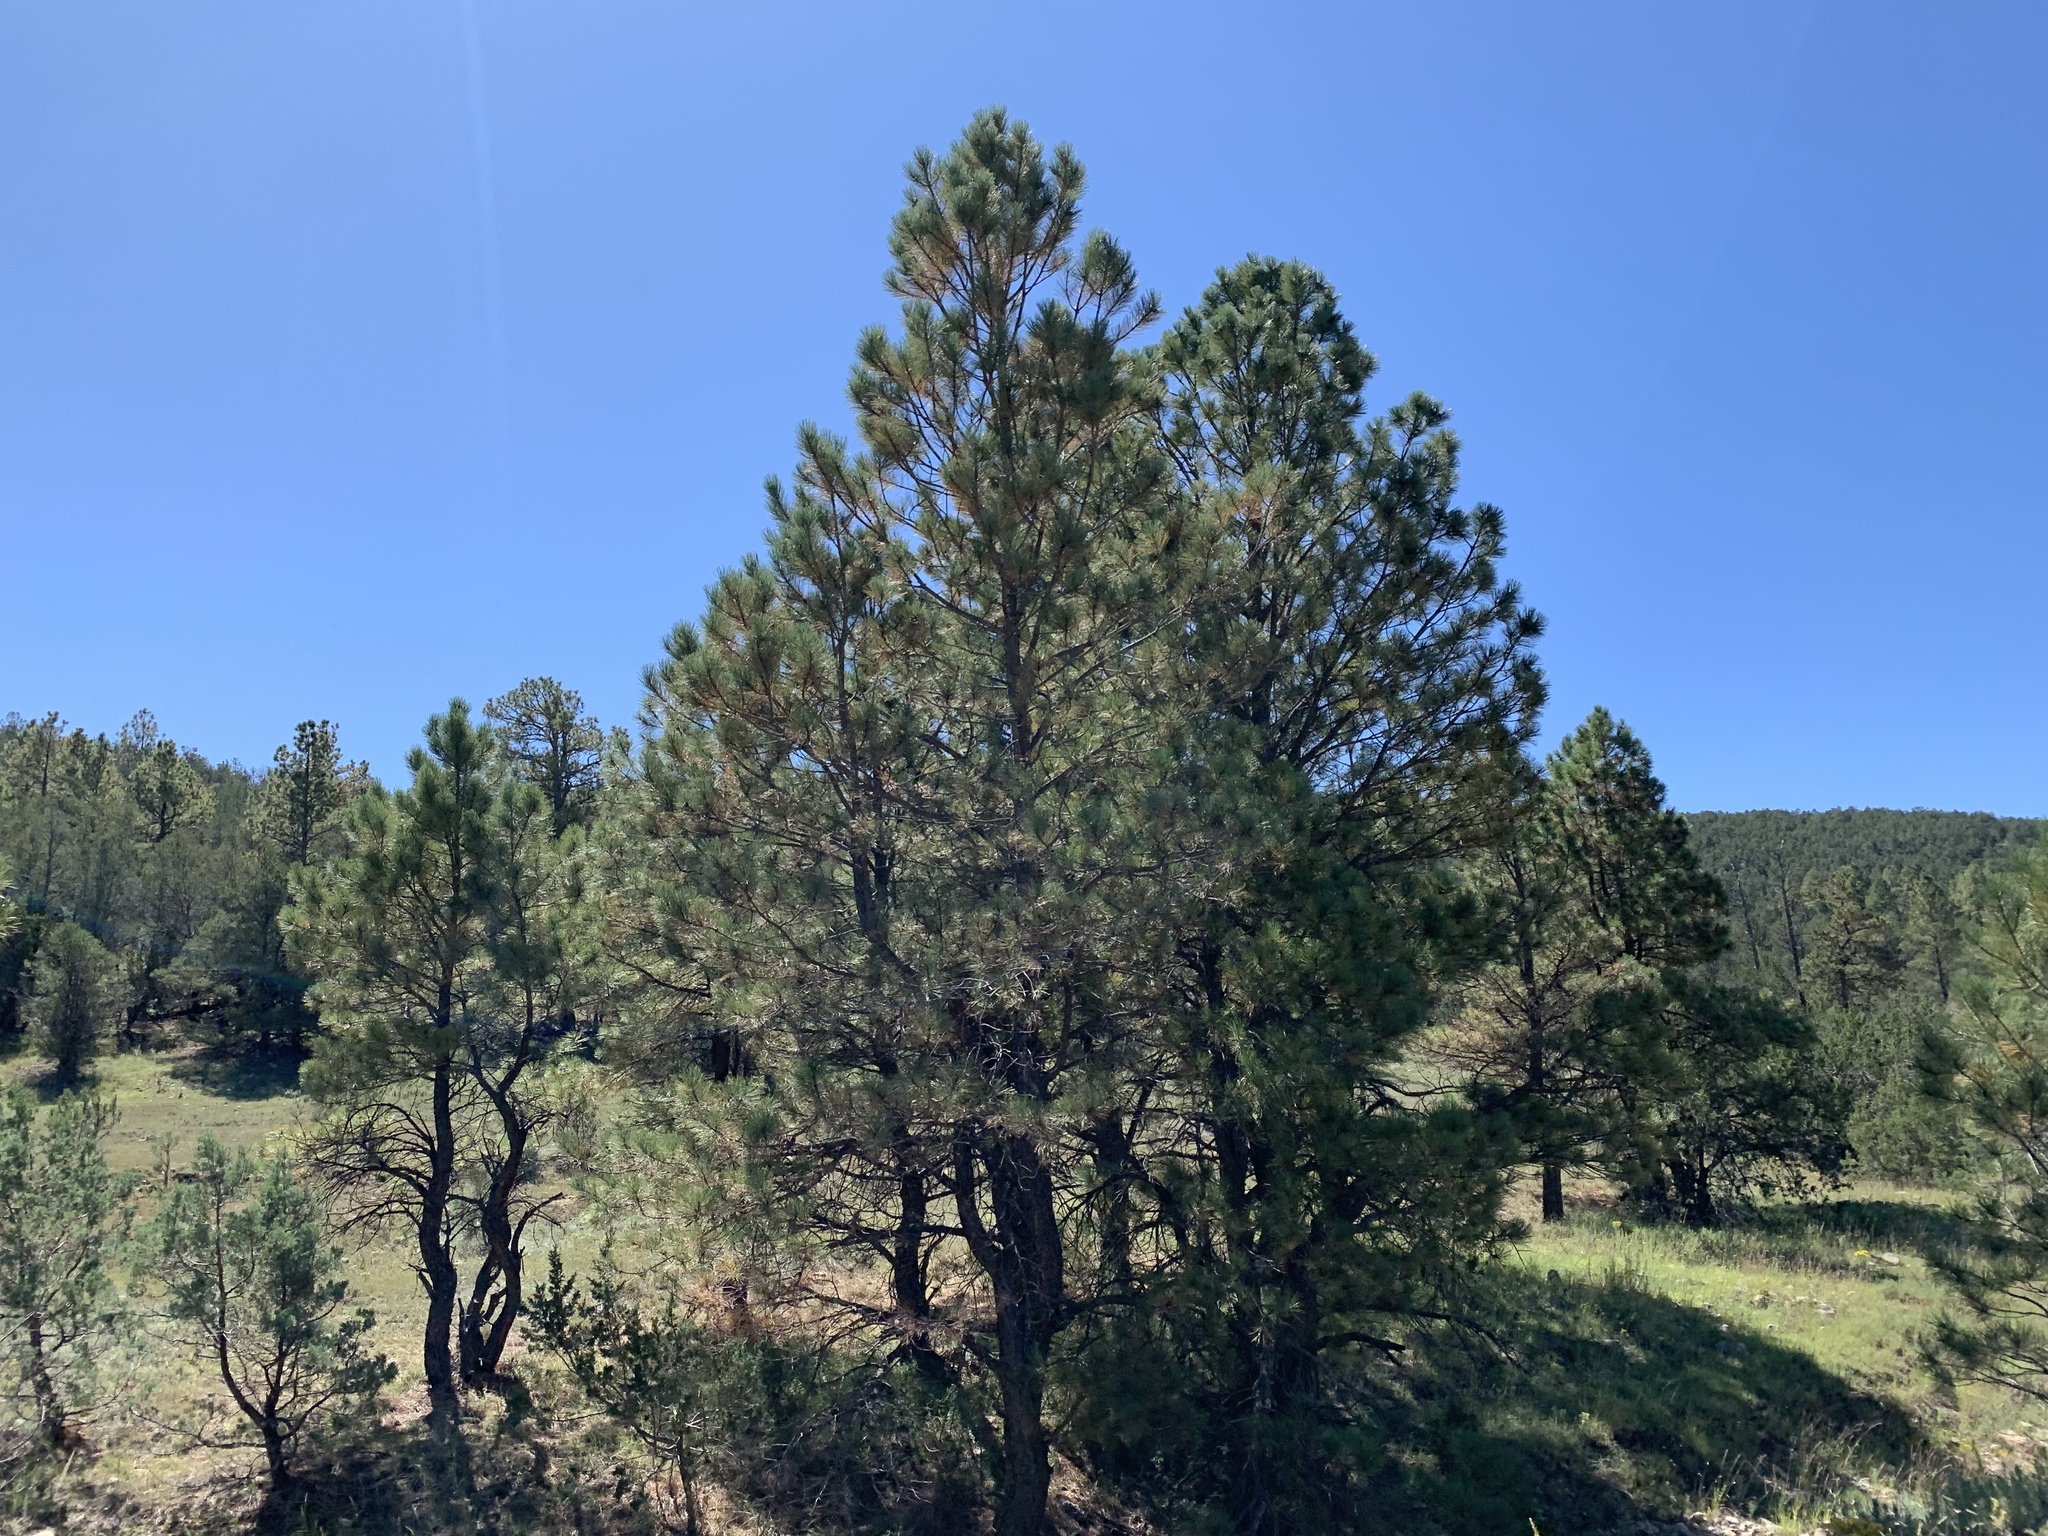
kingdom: Plantae
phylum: Tracheophyta
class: Pinopsida
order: Pinales
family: Pinaceae
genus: Pinus
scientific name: Pinus ponderosa
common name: Western yellow-pine
